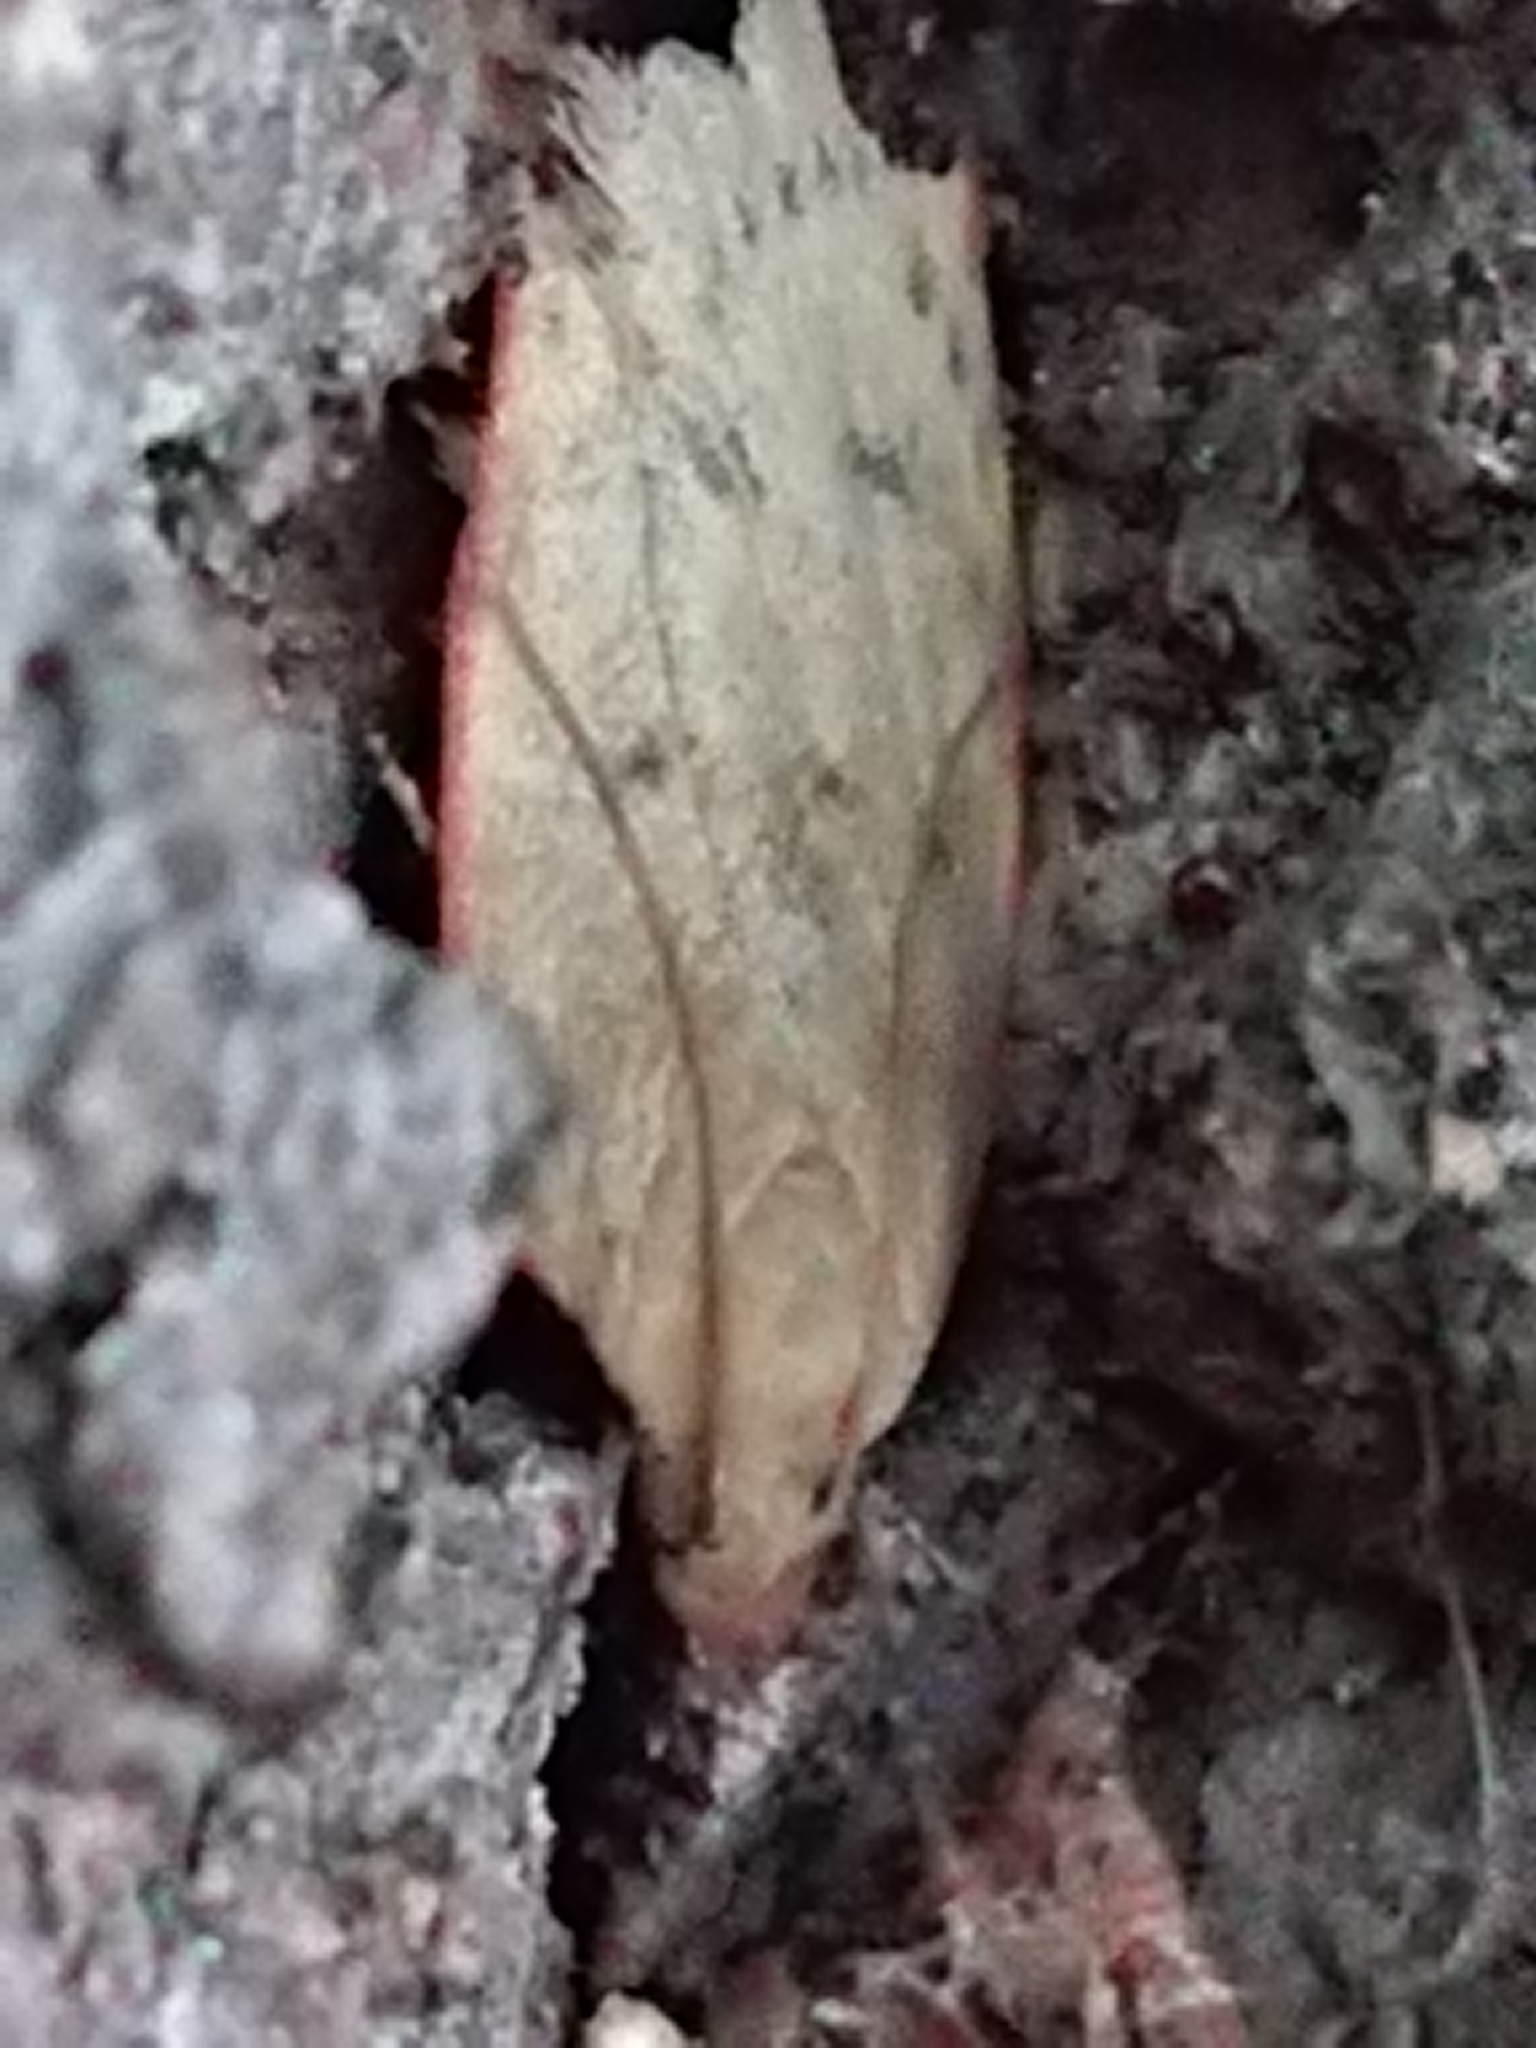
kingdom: Animalia
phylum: Arthropoda
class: Insecta
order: Lepidoptera
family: Depressariidae
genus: Phaeosaces
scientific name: Phaeosaces coarctatella
